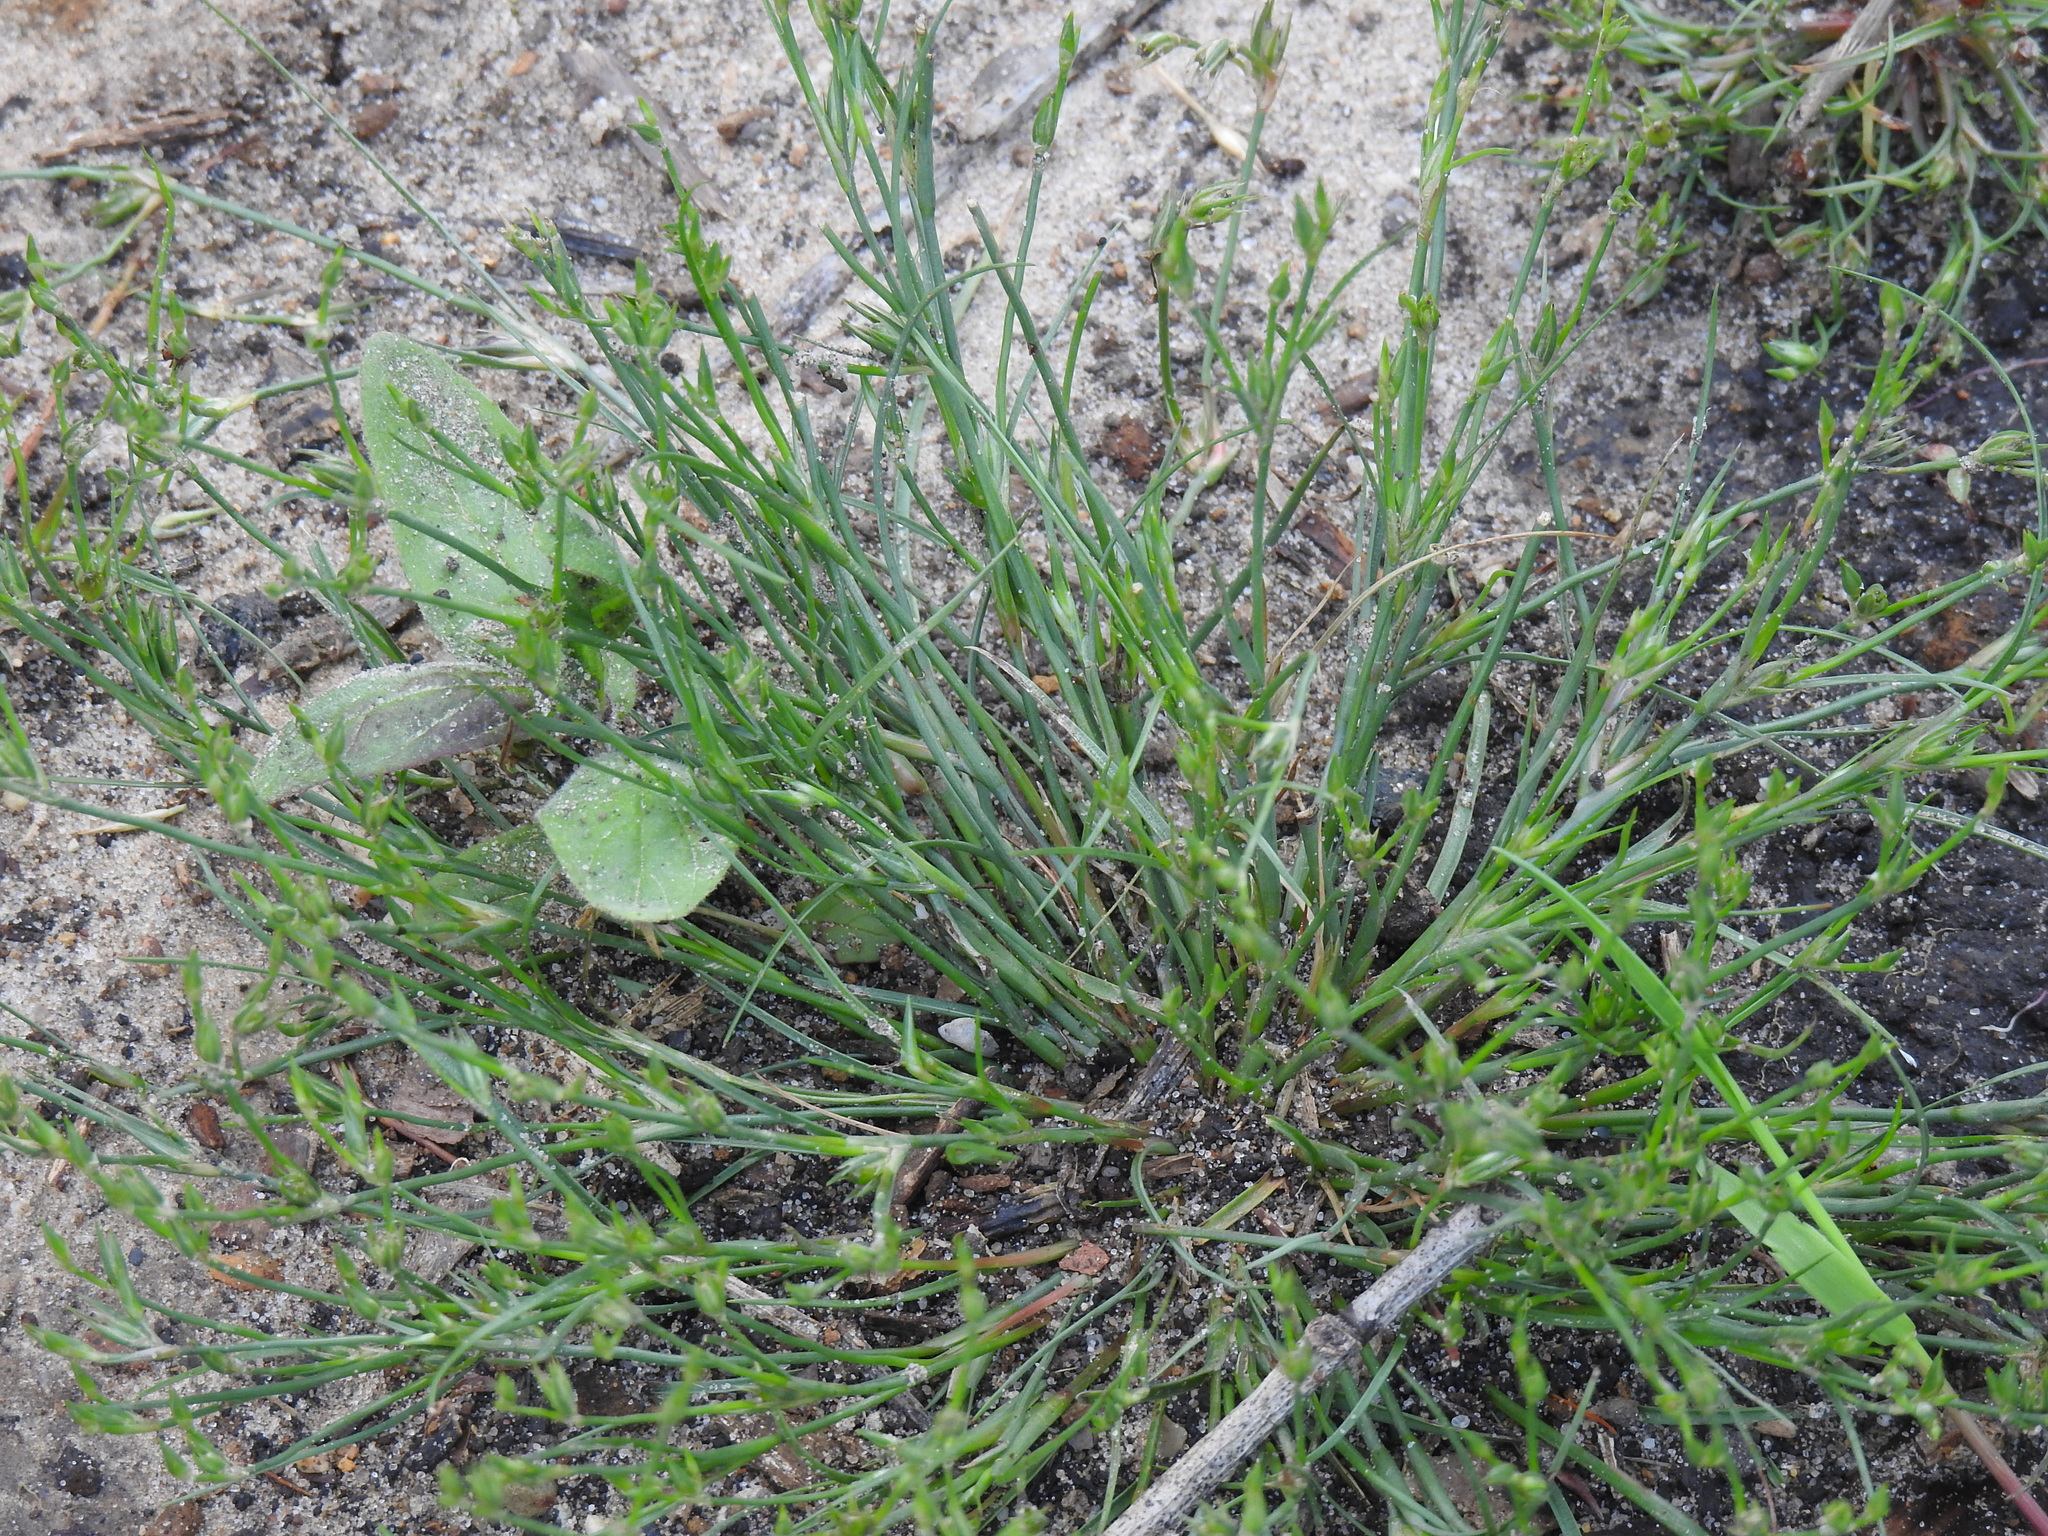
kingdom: Plantae
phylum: Tracheophyta
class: Liliopsida
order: Poales
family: Juncaceae
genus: Juncus
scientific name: Juncus bufonius
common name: Toad rush
